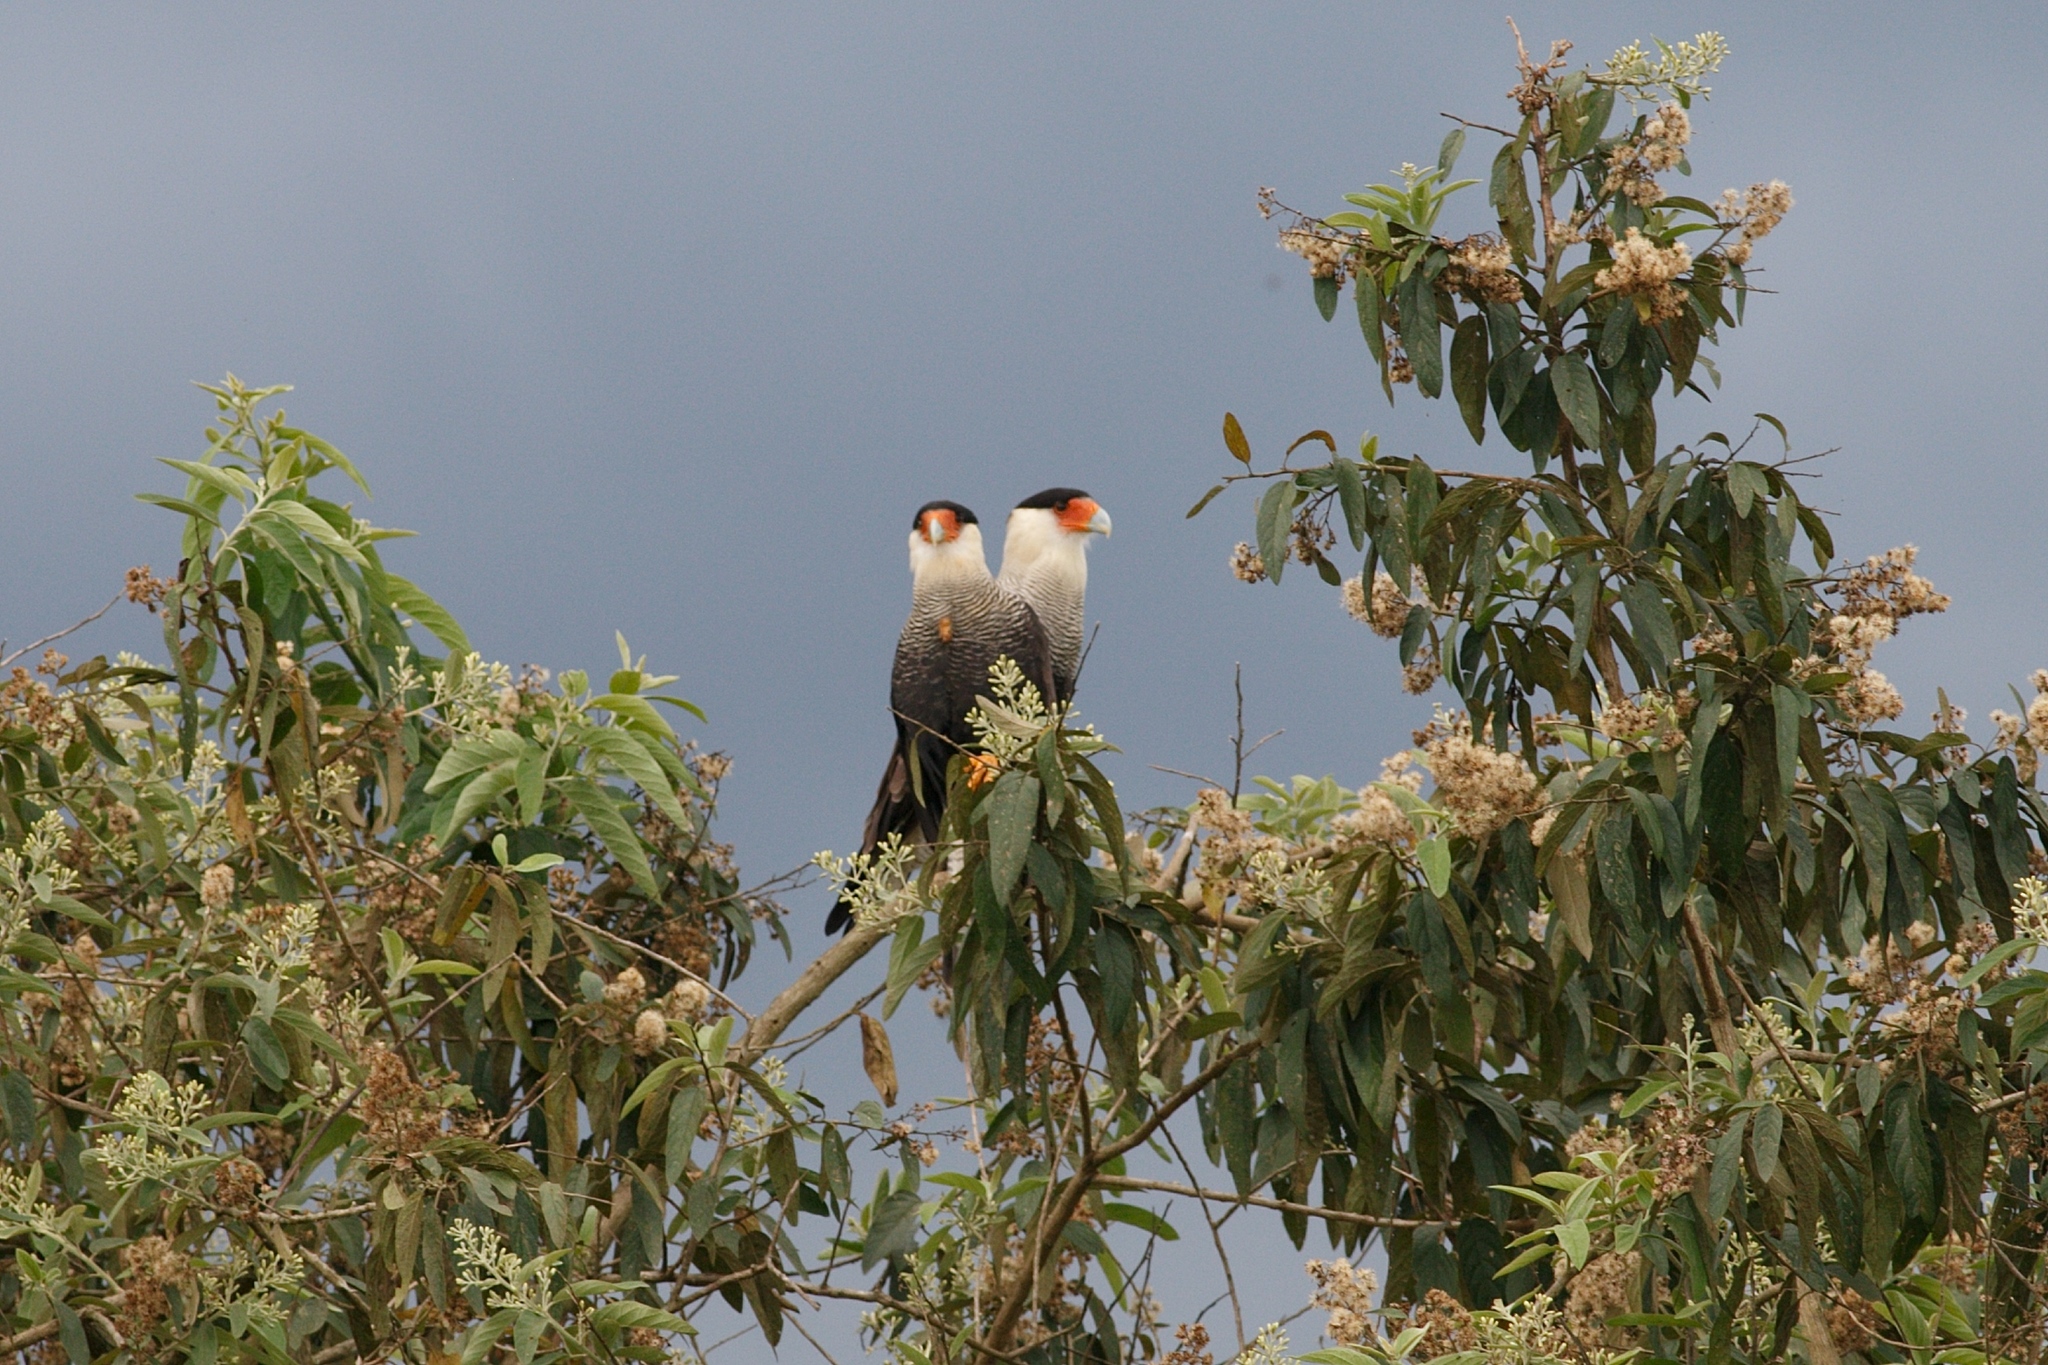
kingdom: Animalia
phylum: Chordata
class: Aves
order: Falconiformes
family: Falconidae
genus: Caracara
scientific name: Caracara plancus
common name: Southern caracara
